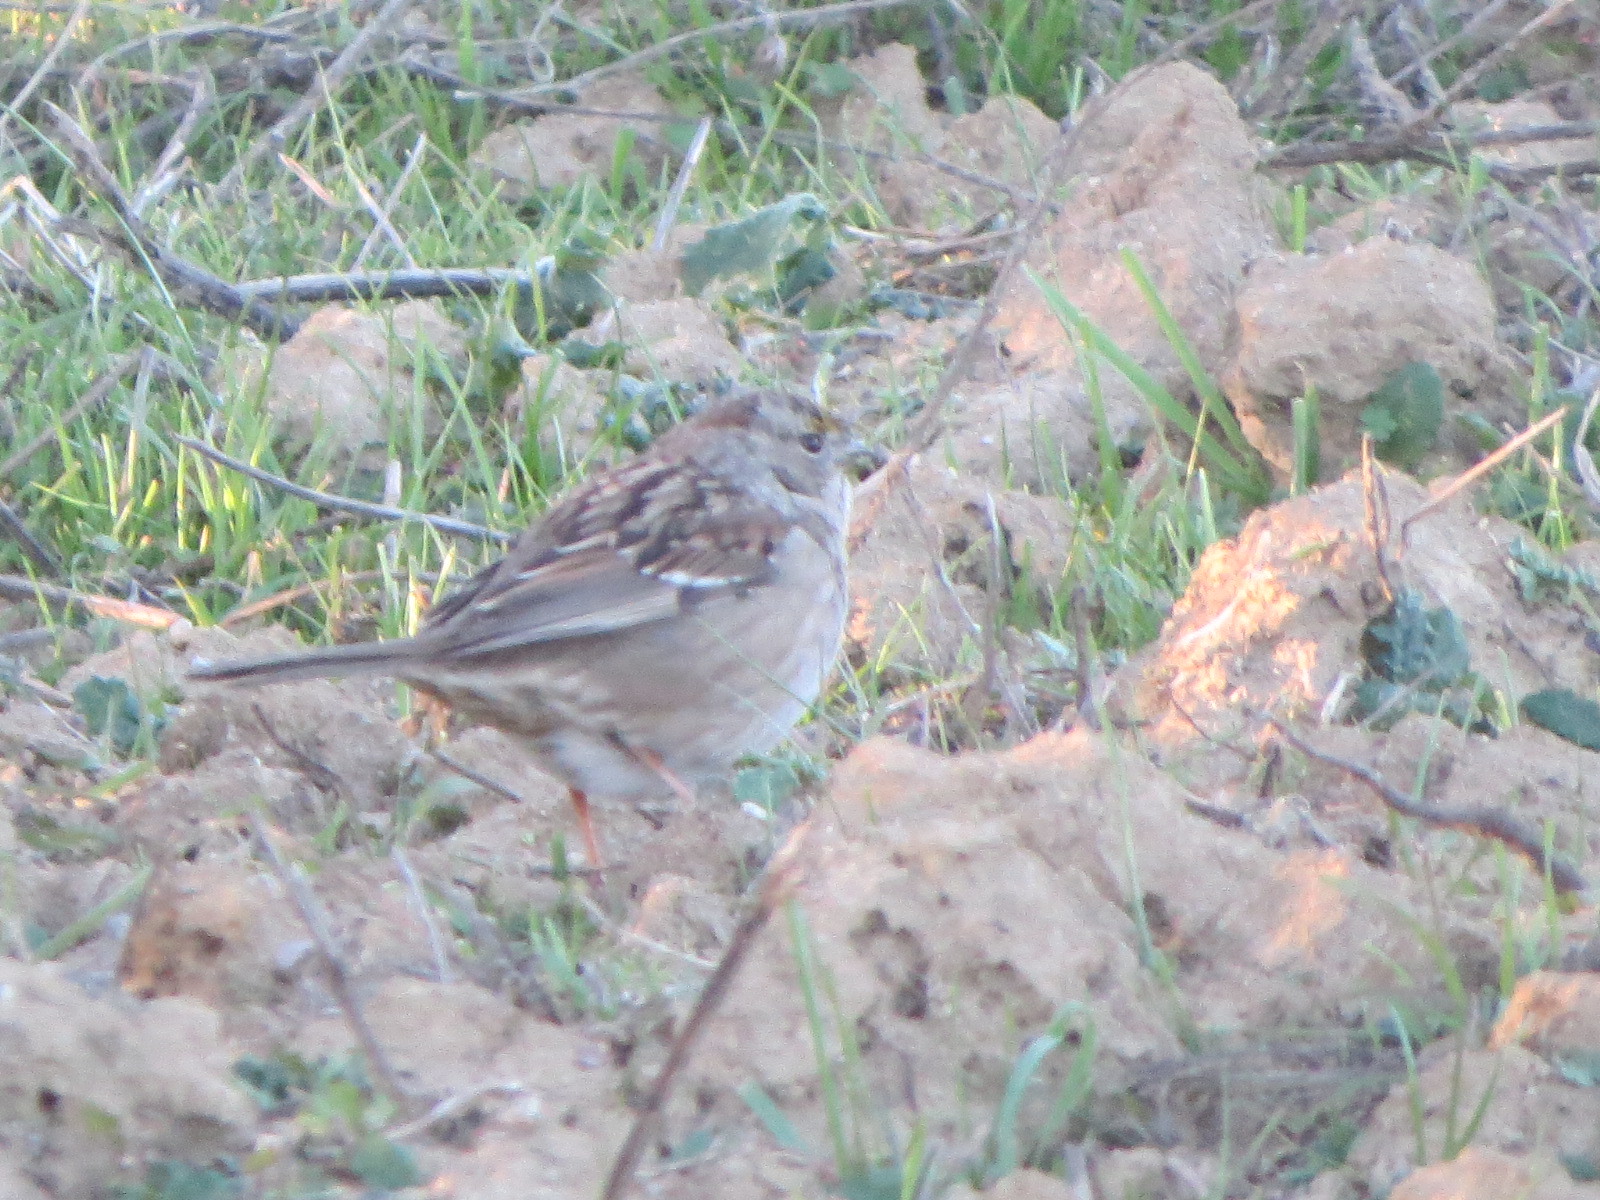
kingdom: Animalia
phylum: Chordata
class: Aves
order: Passeriformes
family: Passerellidae
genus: Zonotrichia
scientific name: Zonotrichia atricapilla
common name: Golden-crowned sparrow
